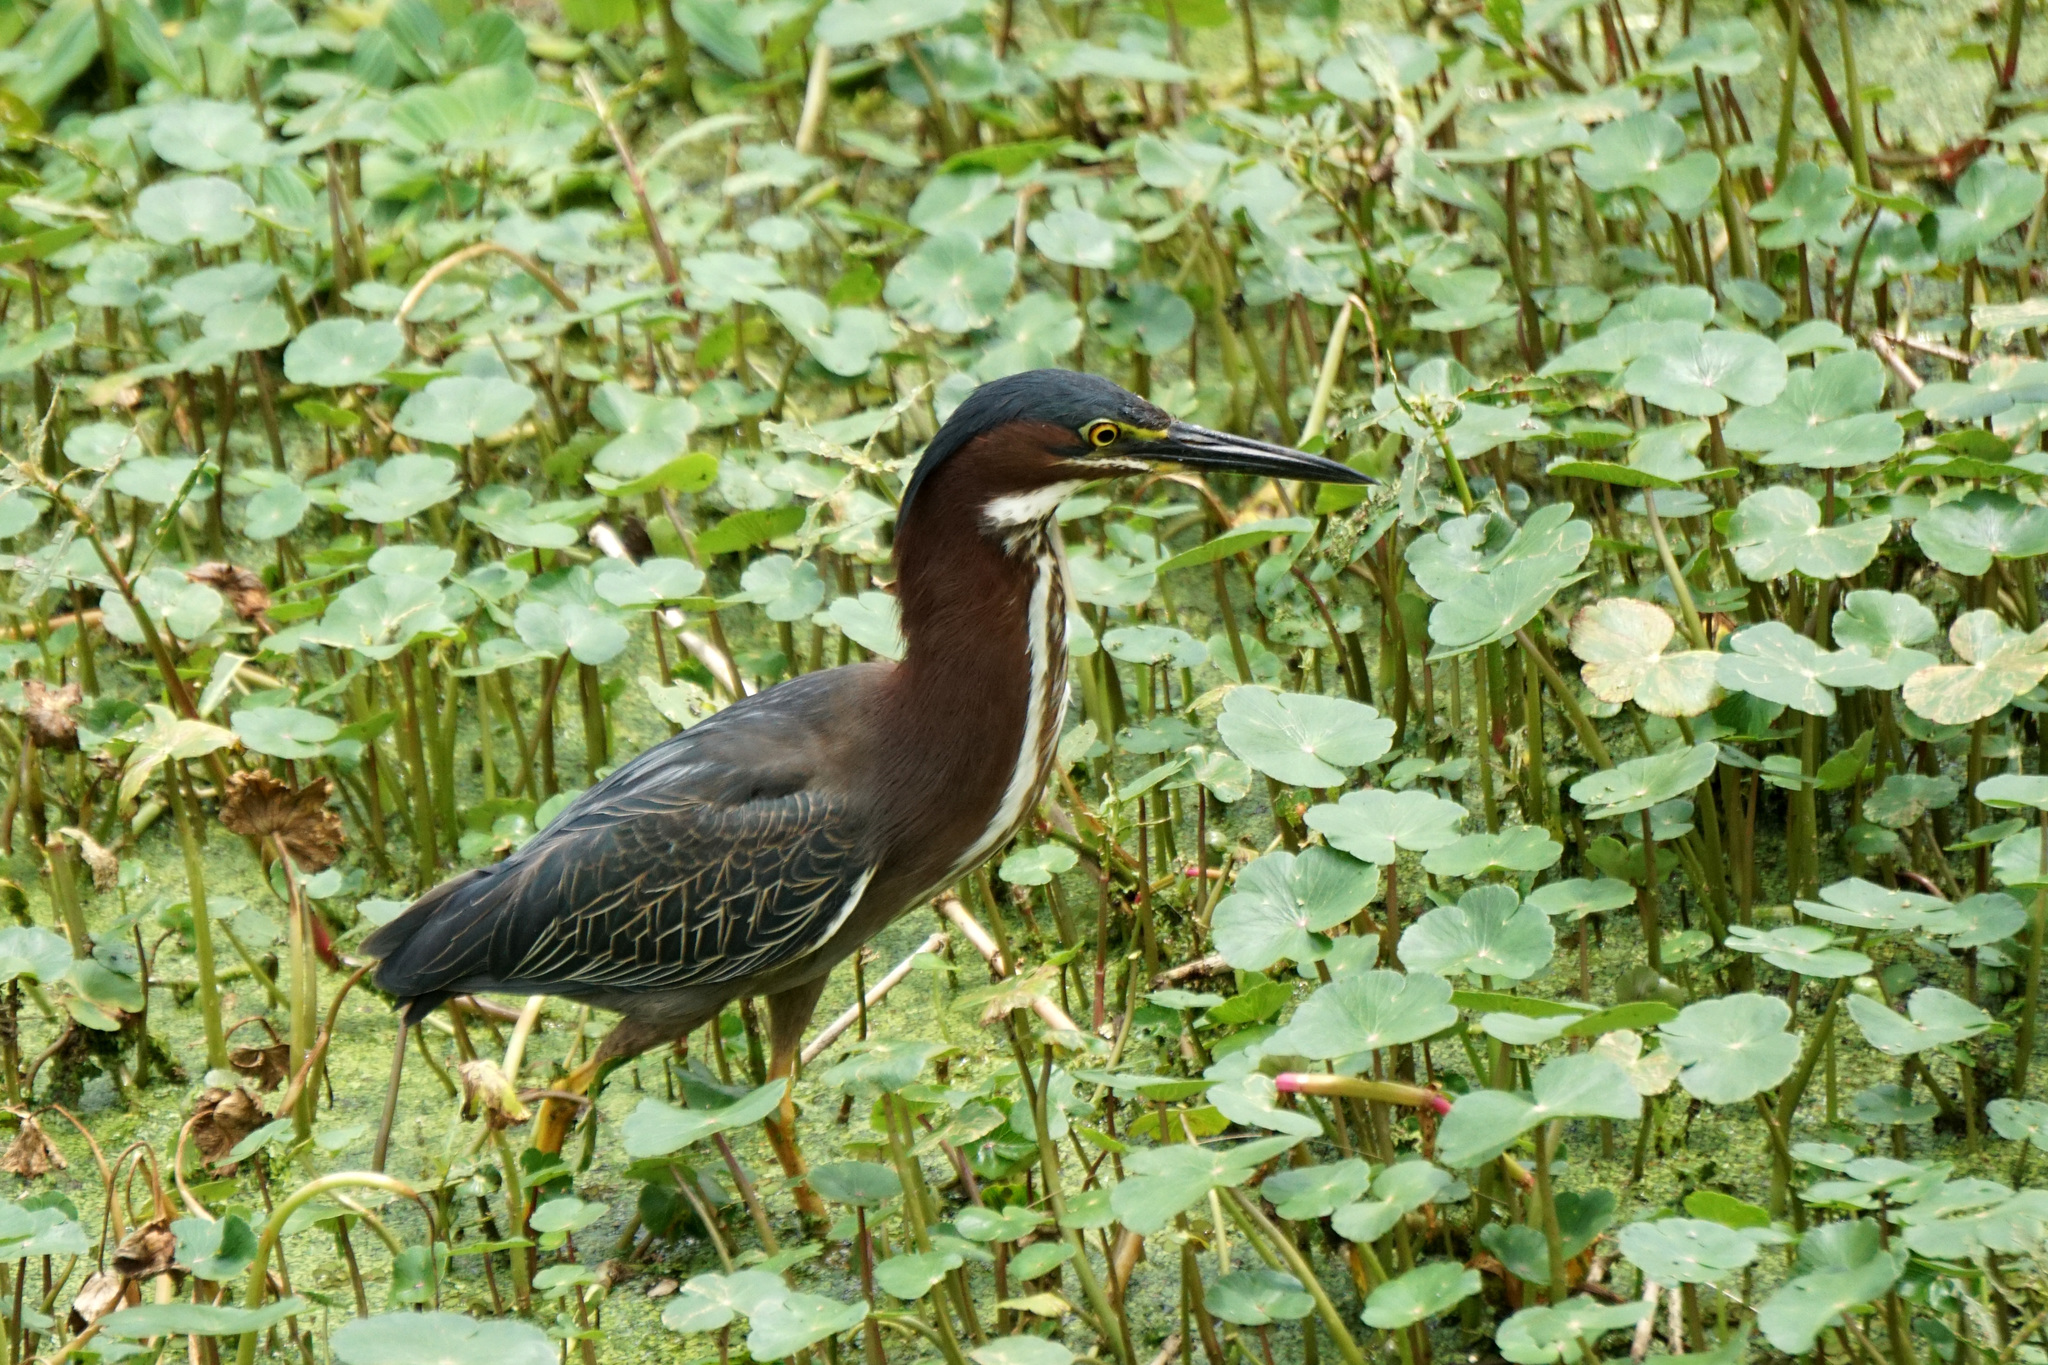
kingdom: Animalia
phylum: Chordata
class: Aves
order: Pelecaniformes
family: Ardeidae
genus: Butorides
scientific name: Butorides virescens
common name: Green heron
